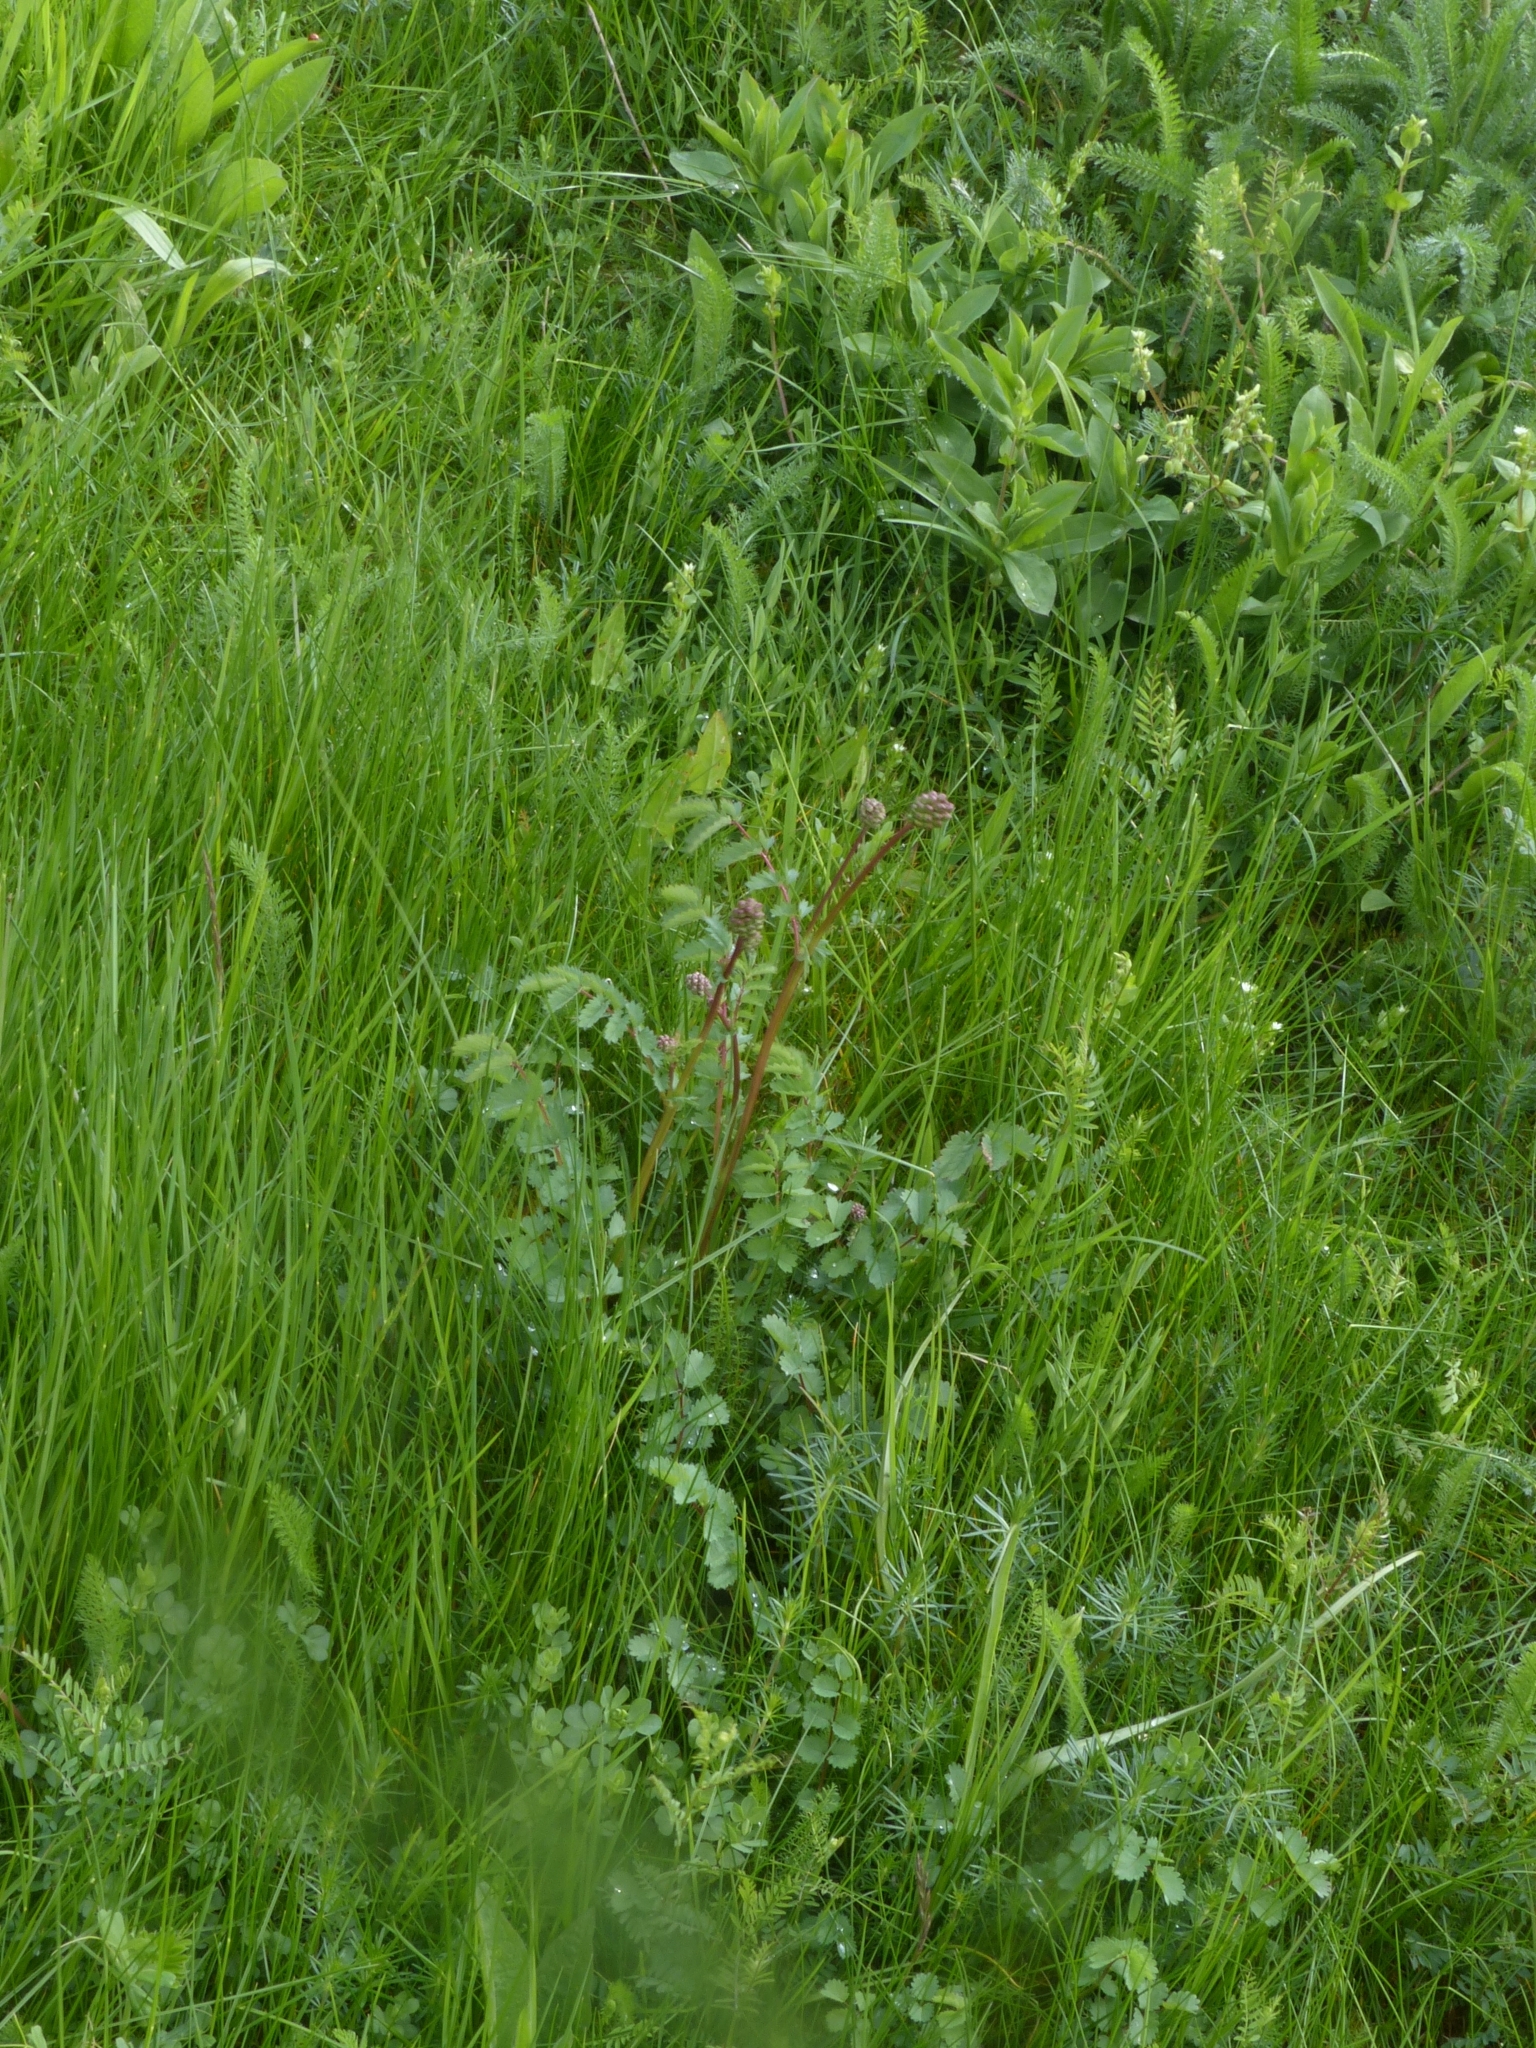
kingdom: Plantae
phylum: Tracheophyta
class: Magnoliopsida
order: Rosales
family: Rosaceae
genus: Poterium
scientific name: Poterium sanguisorba
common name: Salad burnet
